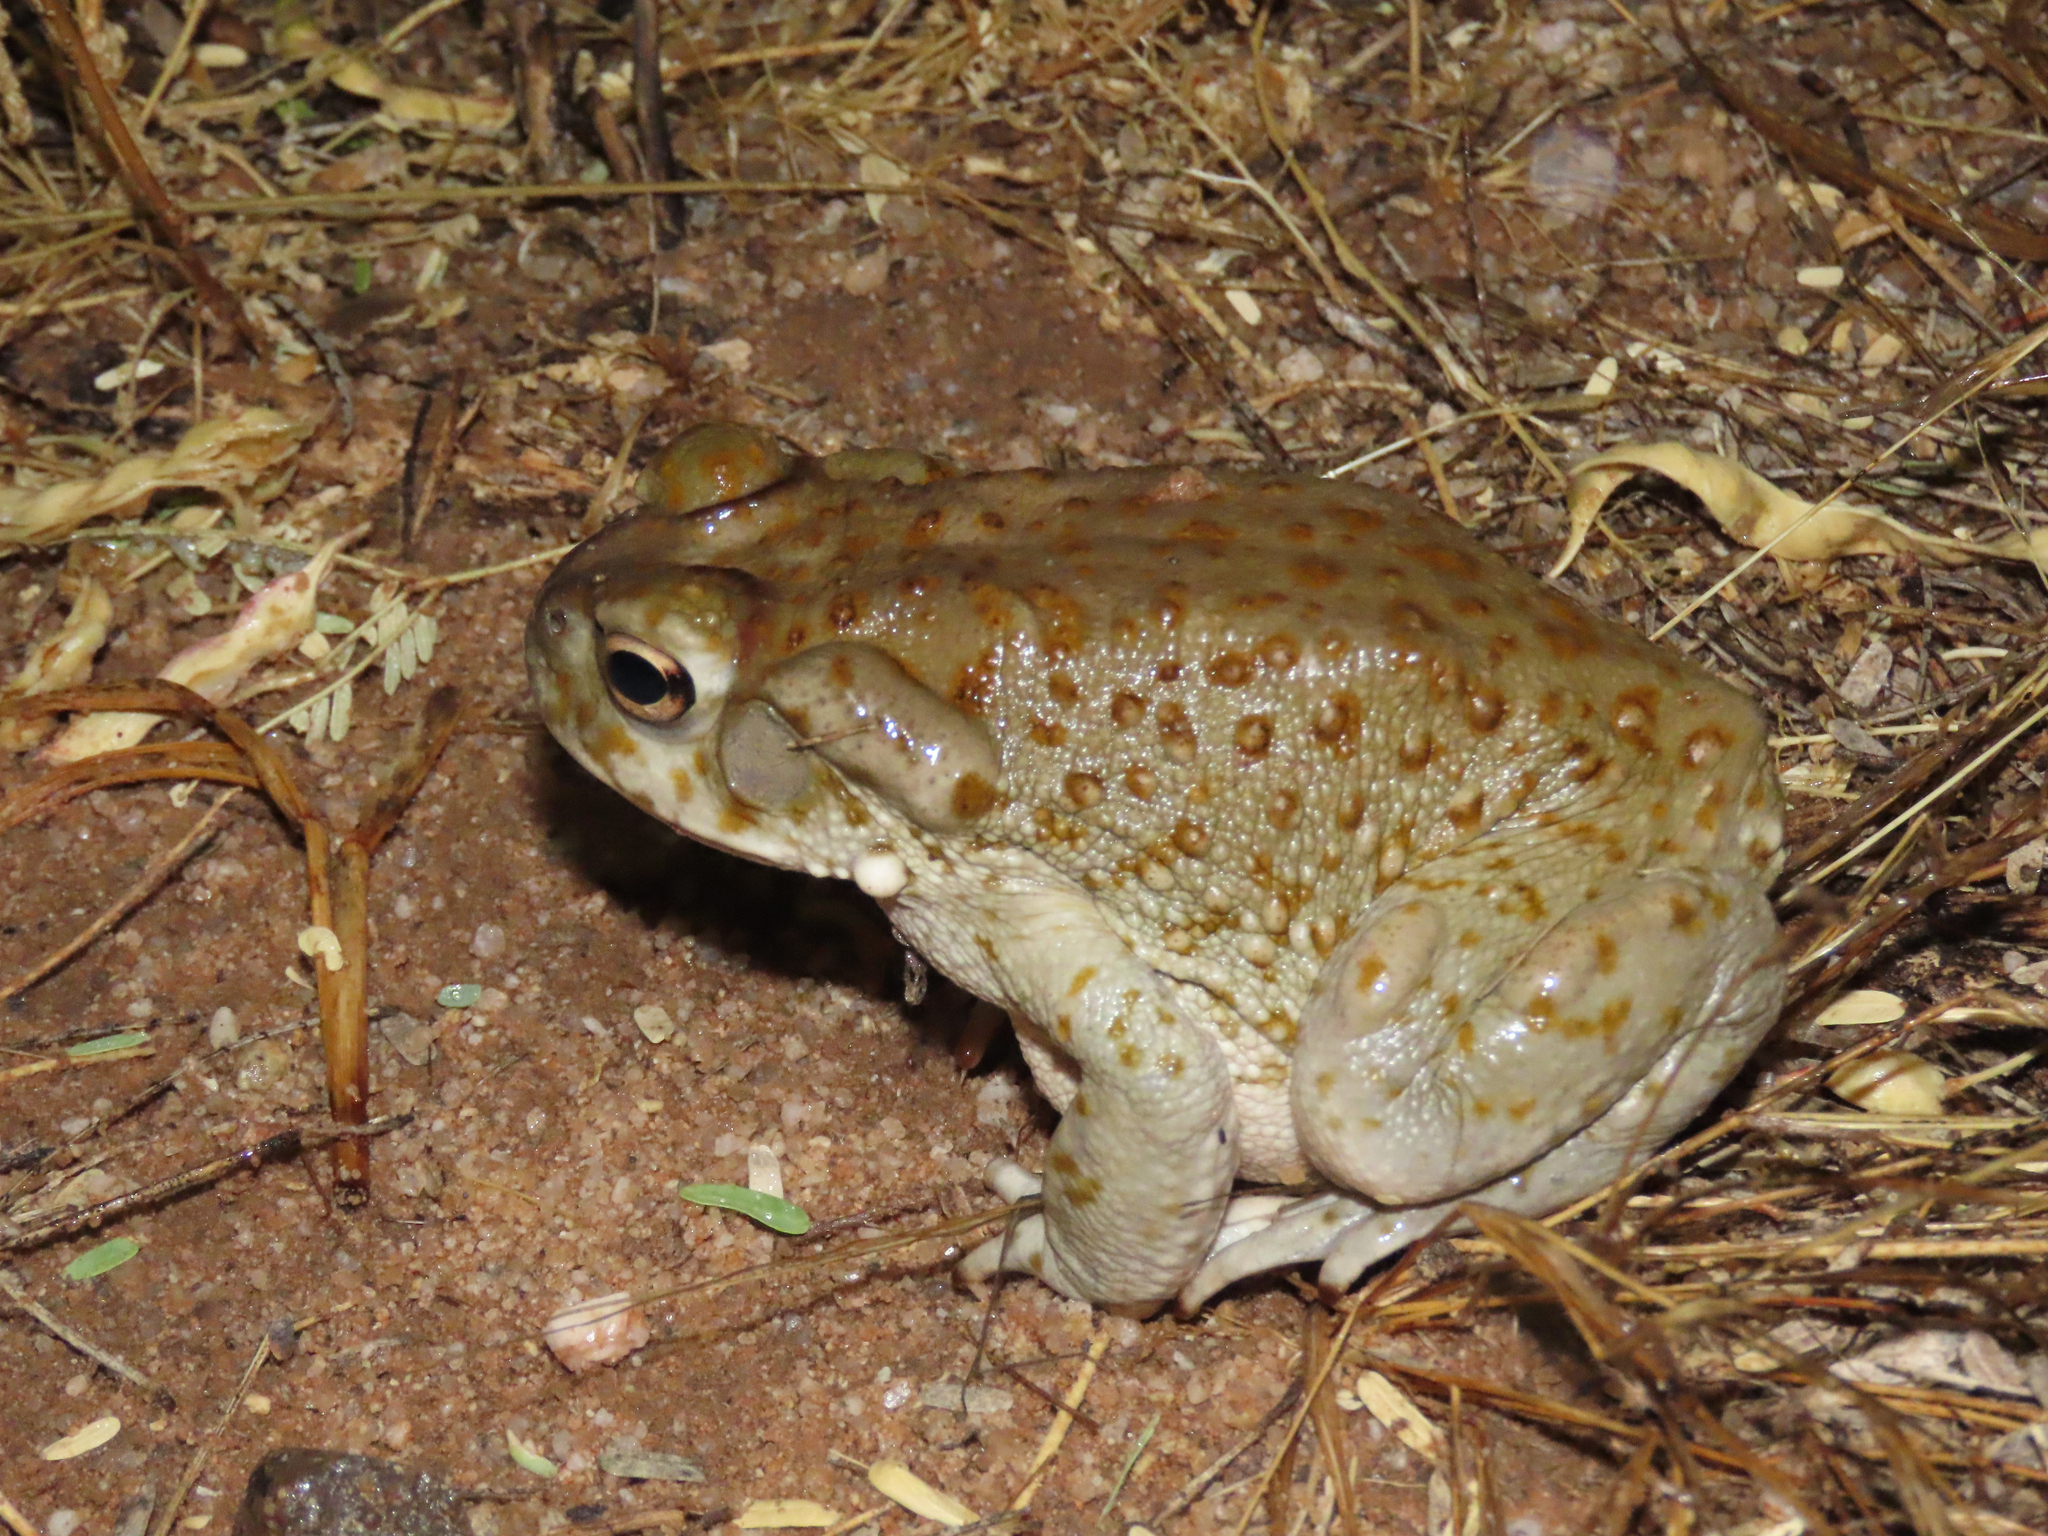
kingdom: Animalia
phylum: Chordata
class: Amphibia
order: Anura
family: Bufonidae
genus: Incilius
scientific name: Incilius alvarius
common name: Sonoran desert toad
